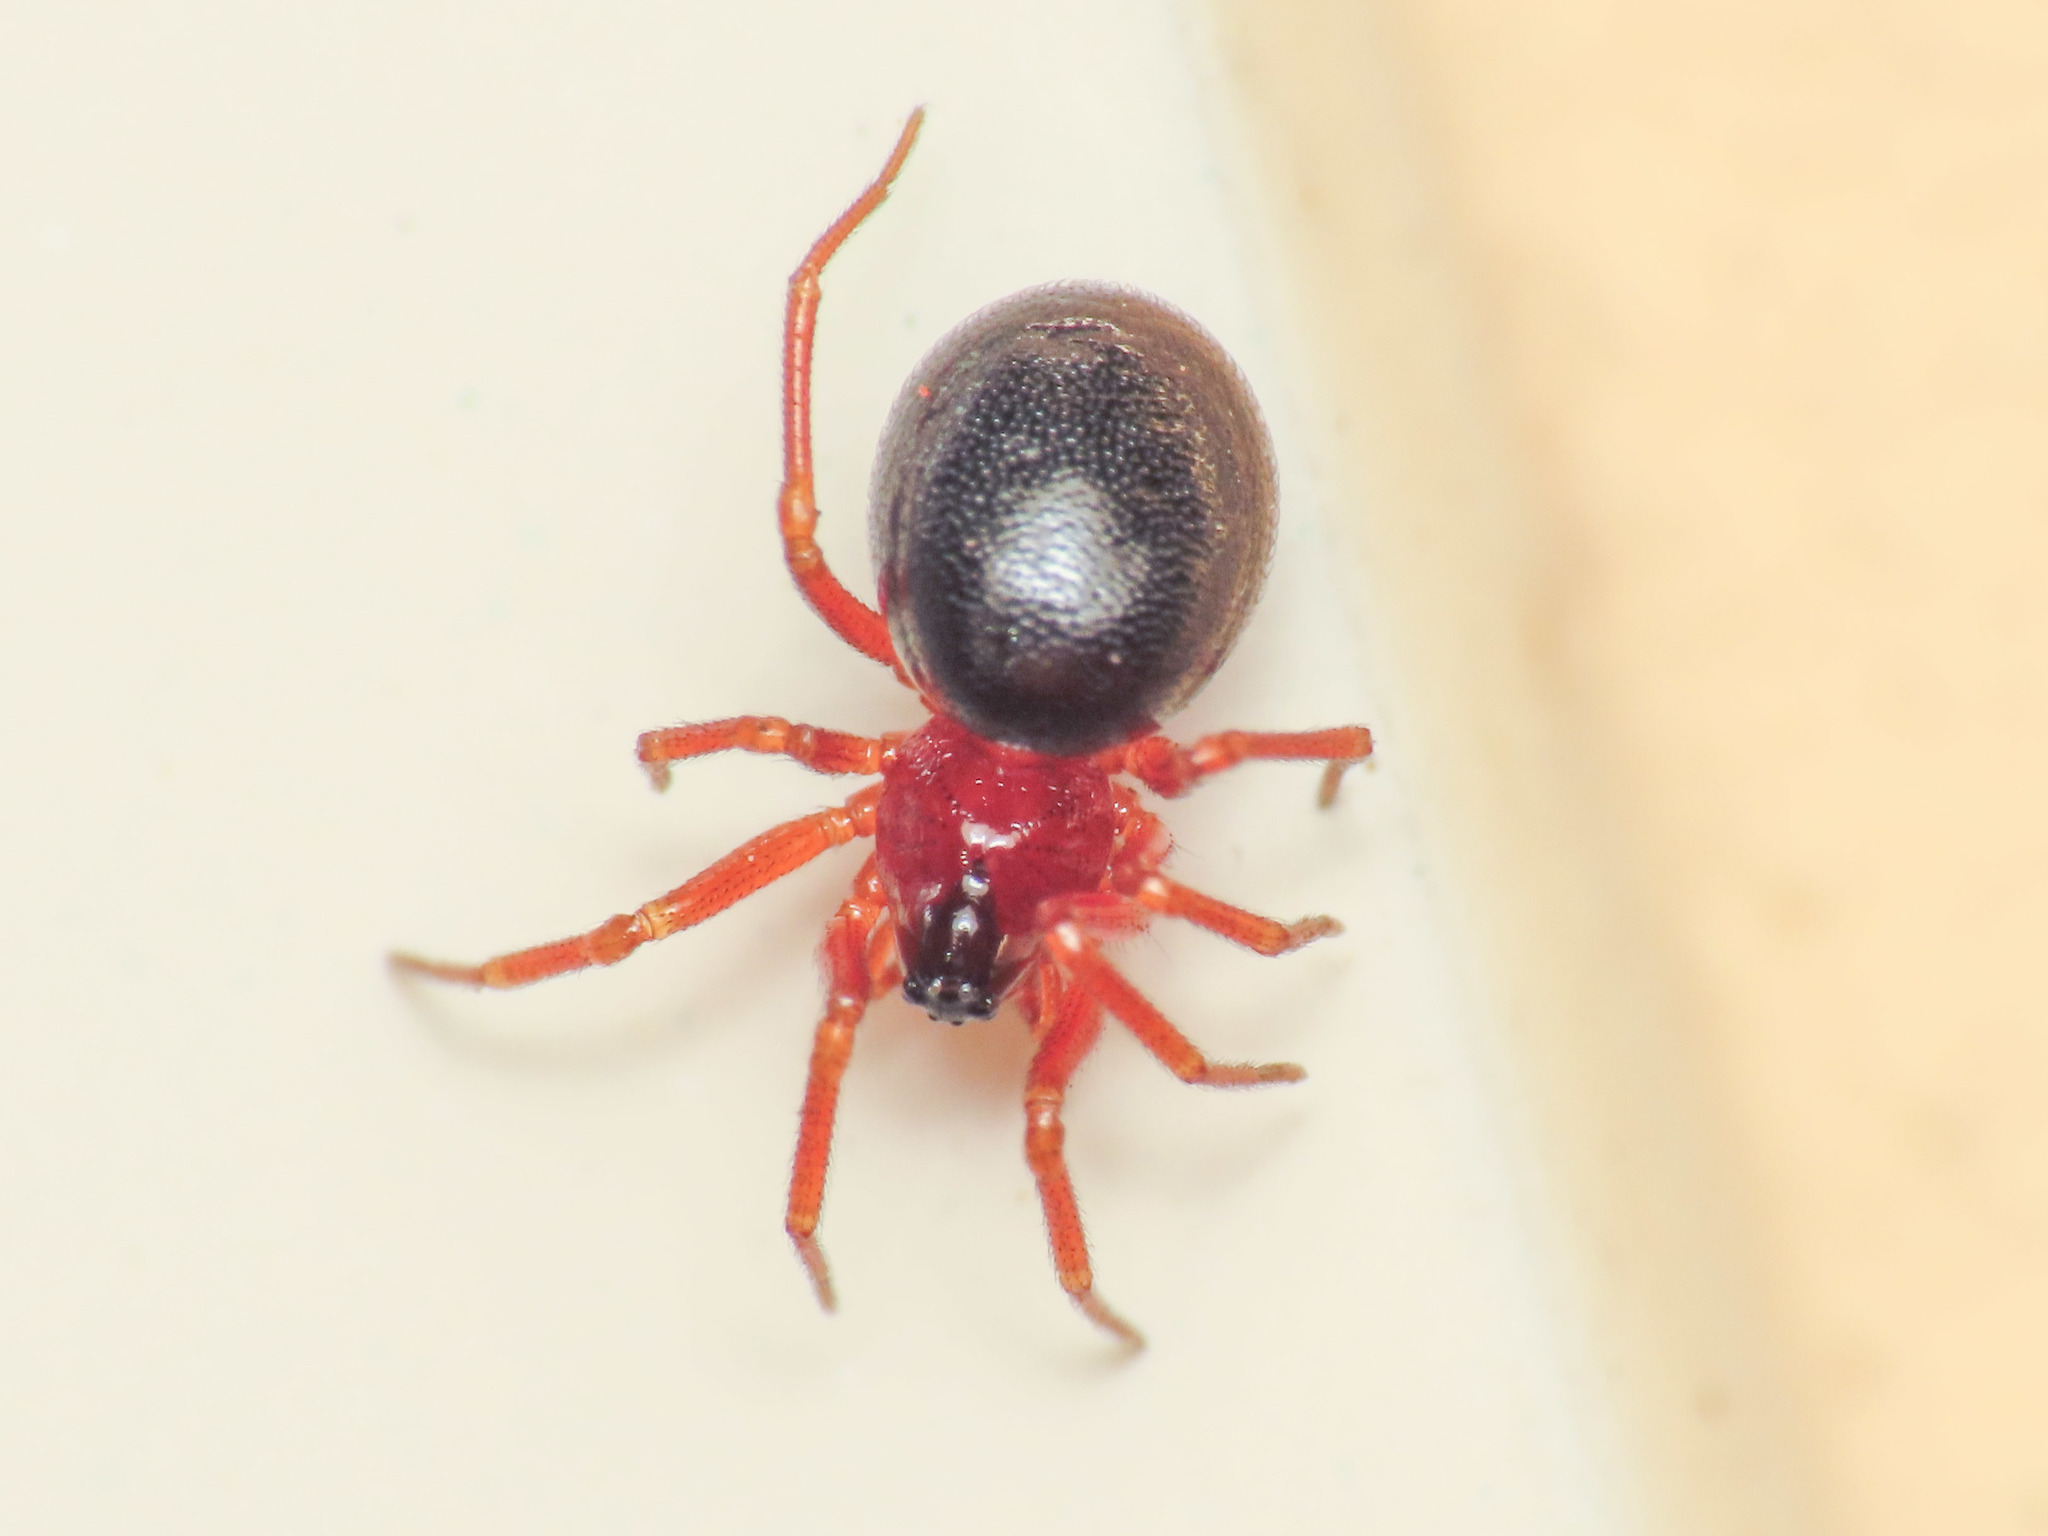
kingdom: Animalia
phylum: Arthropoda
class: Arachnida
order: Araneae
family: Linyphiidae
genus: Pelecopsis
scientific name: Pelecopsis bucephala
